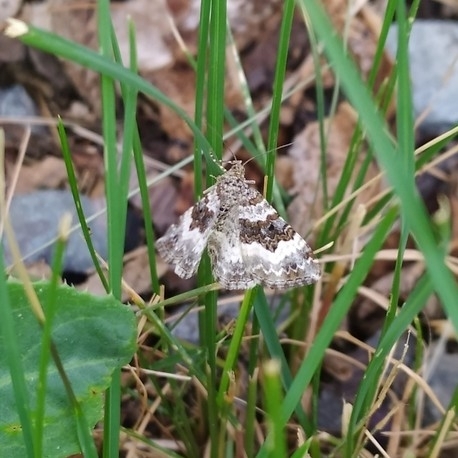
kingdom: Animalia
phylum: Arthropoda
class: Insecta
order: Lepidoptera
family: Geometridae
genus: Epirrhoe
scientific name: Epirrhoe alternata
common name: Common carpet
